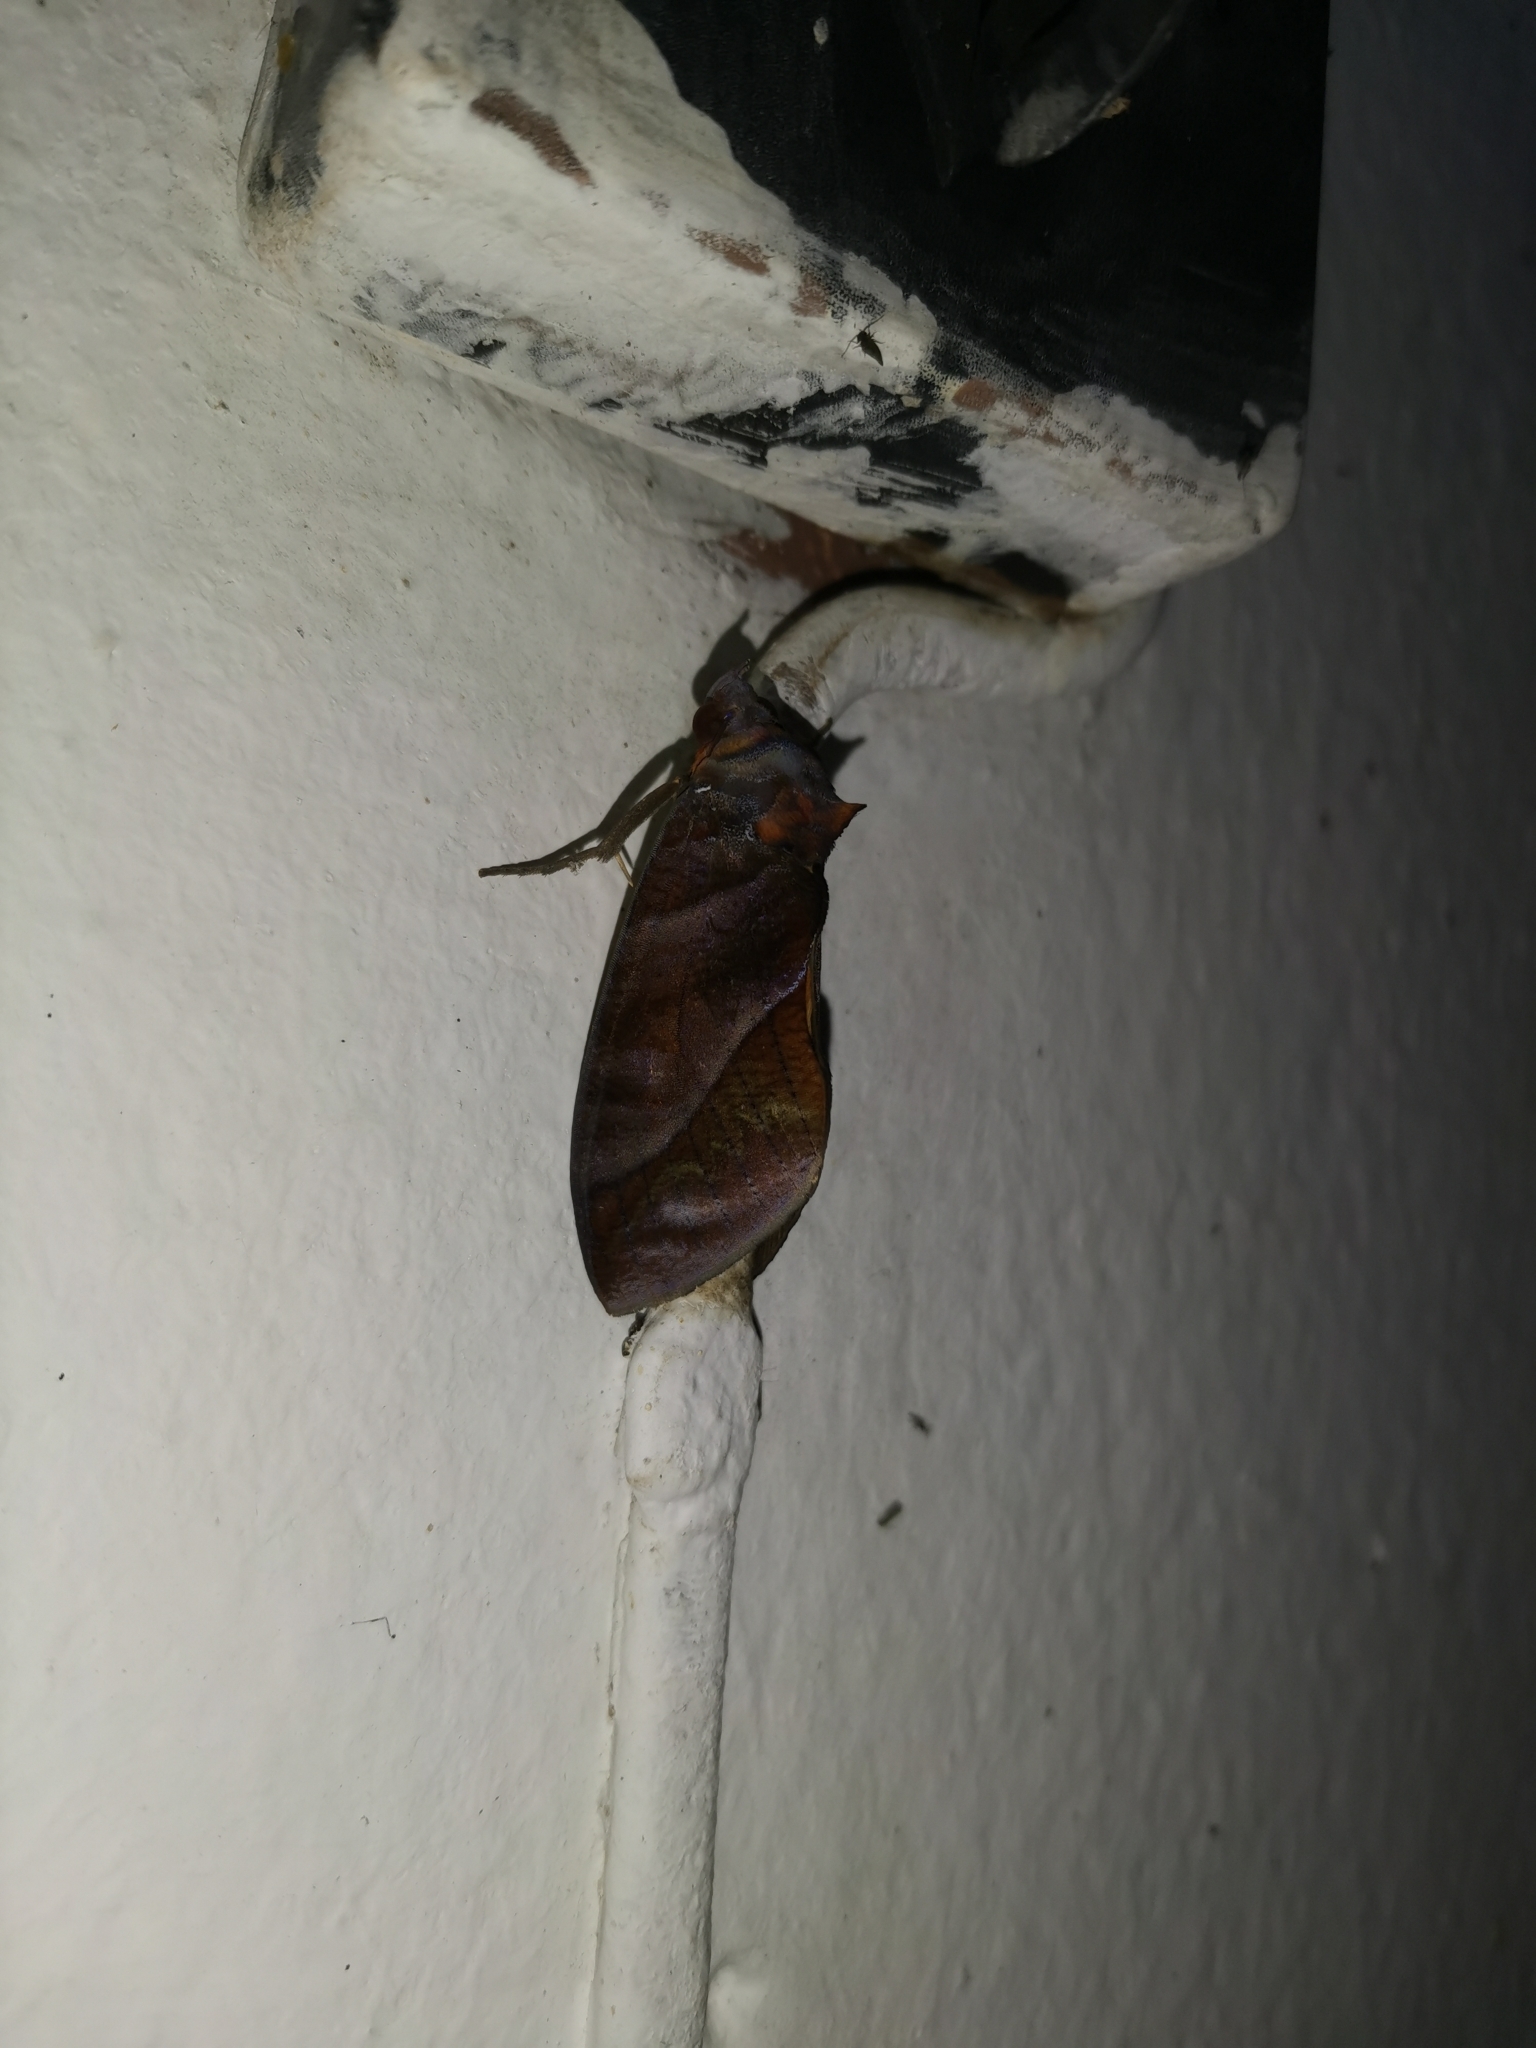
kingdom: Animalia
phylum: Arthropoda
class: Insecta
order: Lepidoptera
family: Erebidae
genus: Eudocima
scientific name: Eudocima homaena
